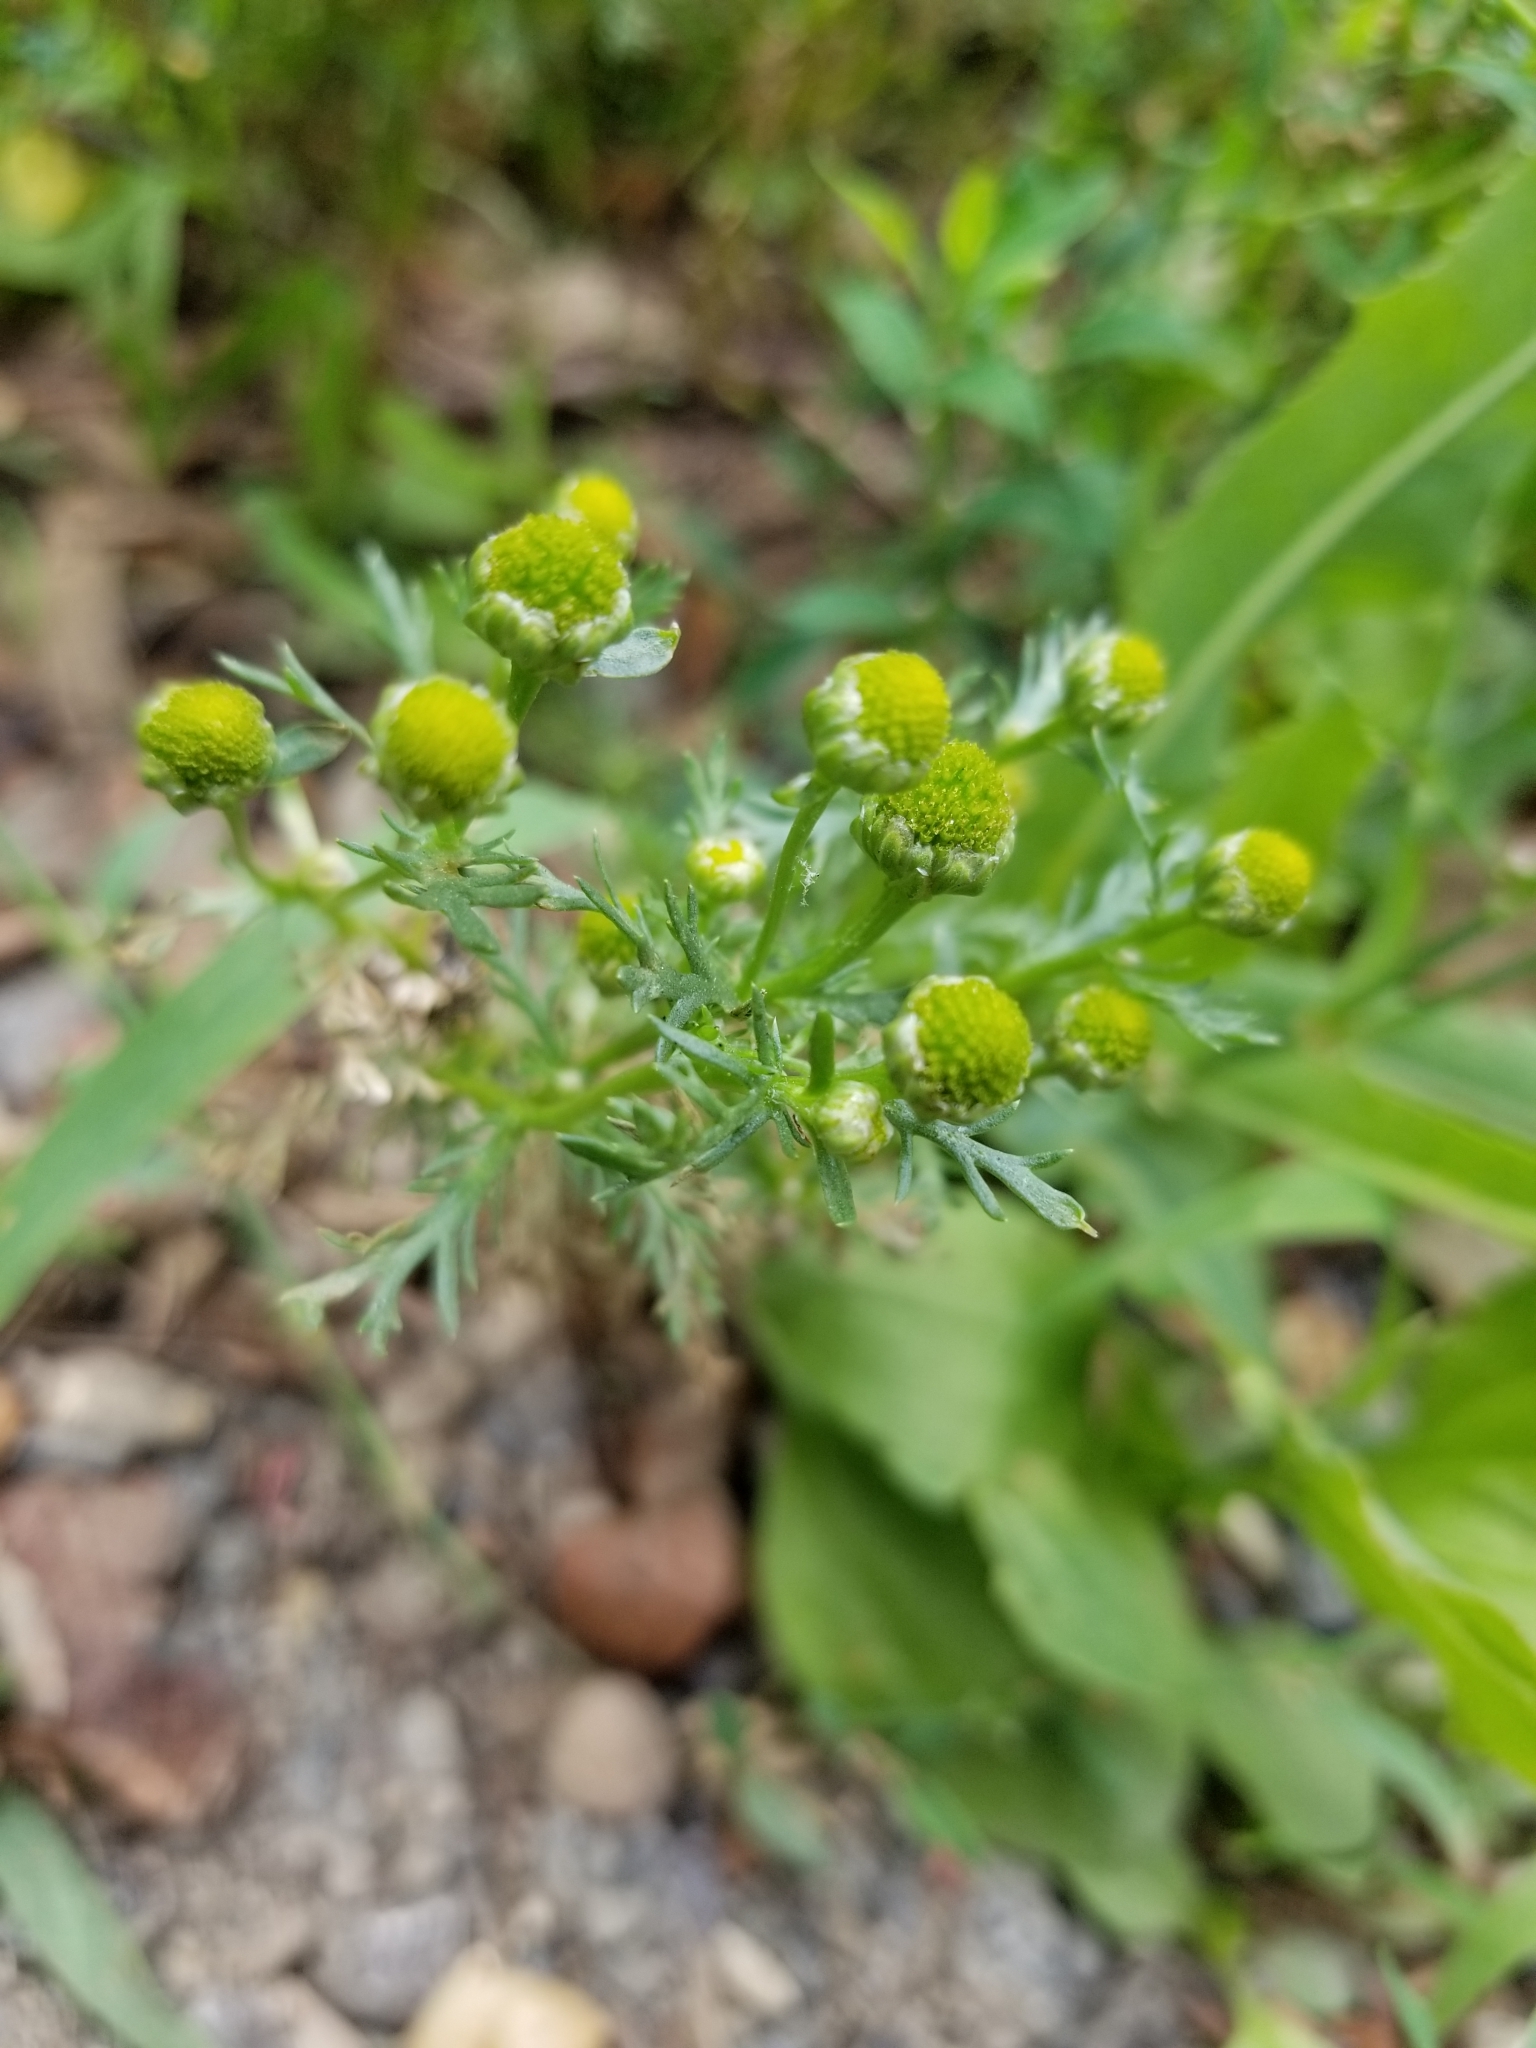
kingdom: Plantae
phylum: Tracheophyta
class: Magnoliopsida
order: Asterales
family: Asteraceae
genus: Matricaria
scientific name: Matricaria discoidea
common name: Disc mayweed
